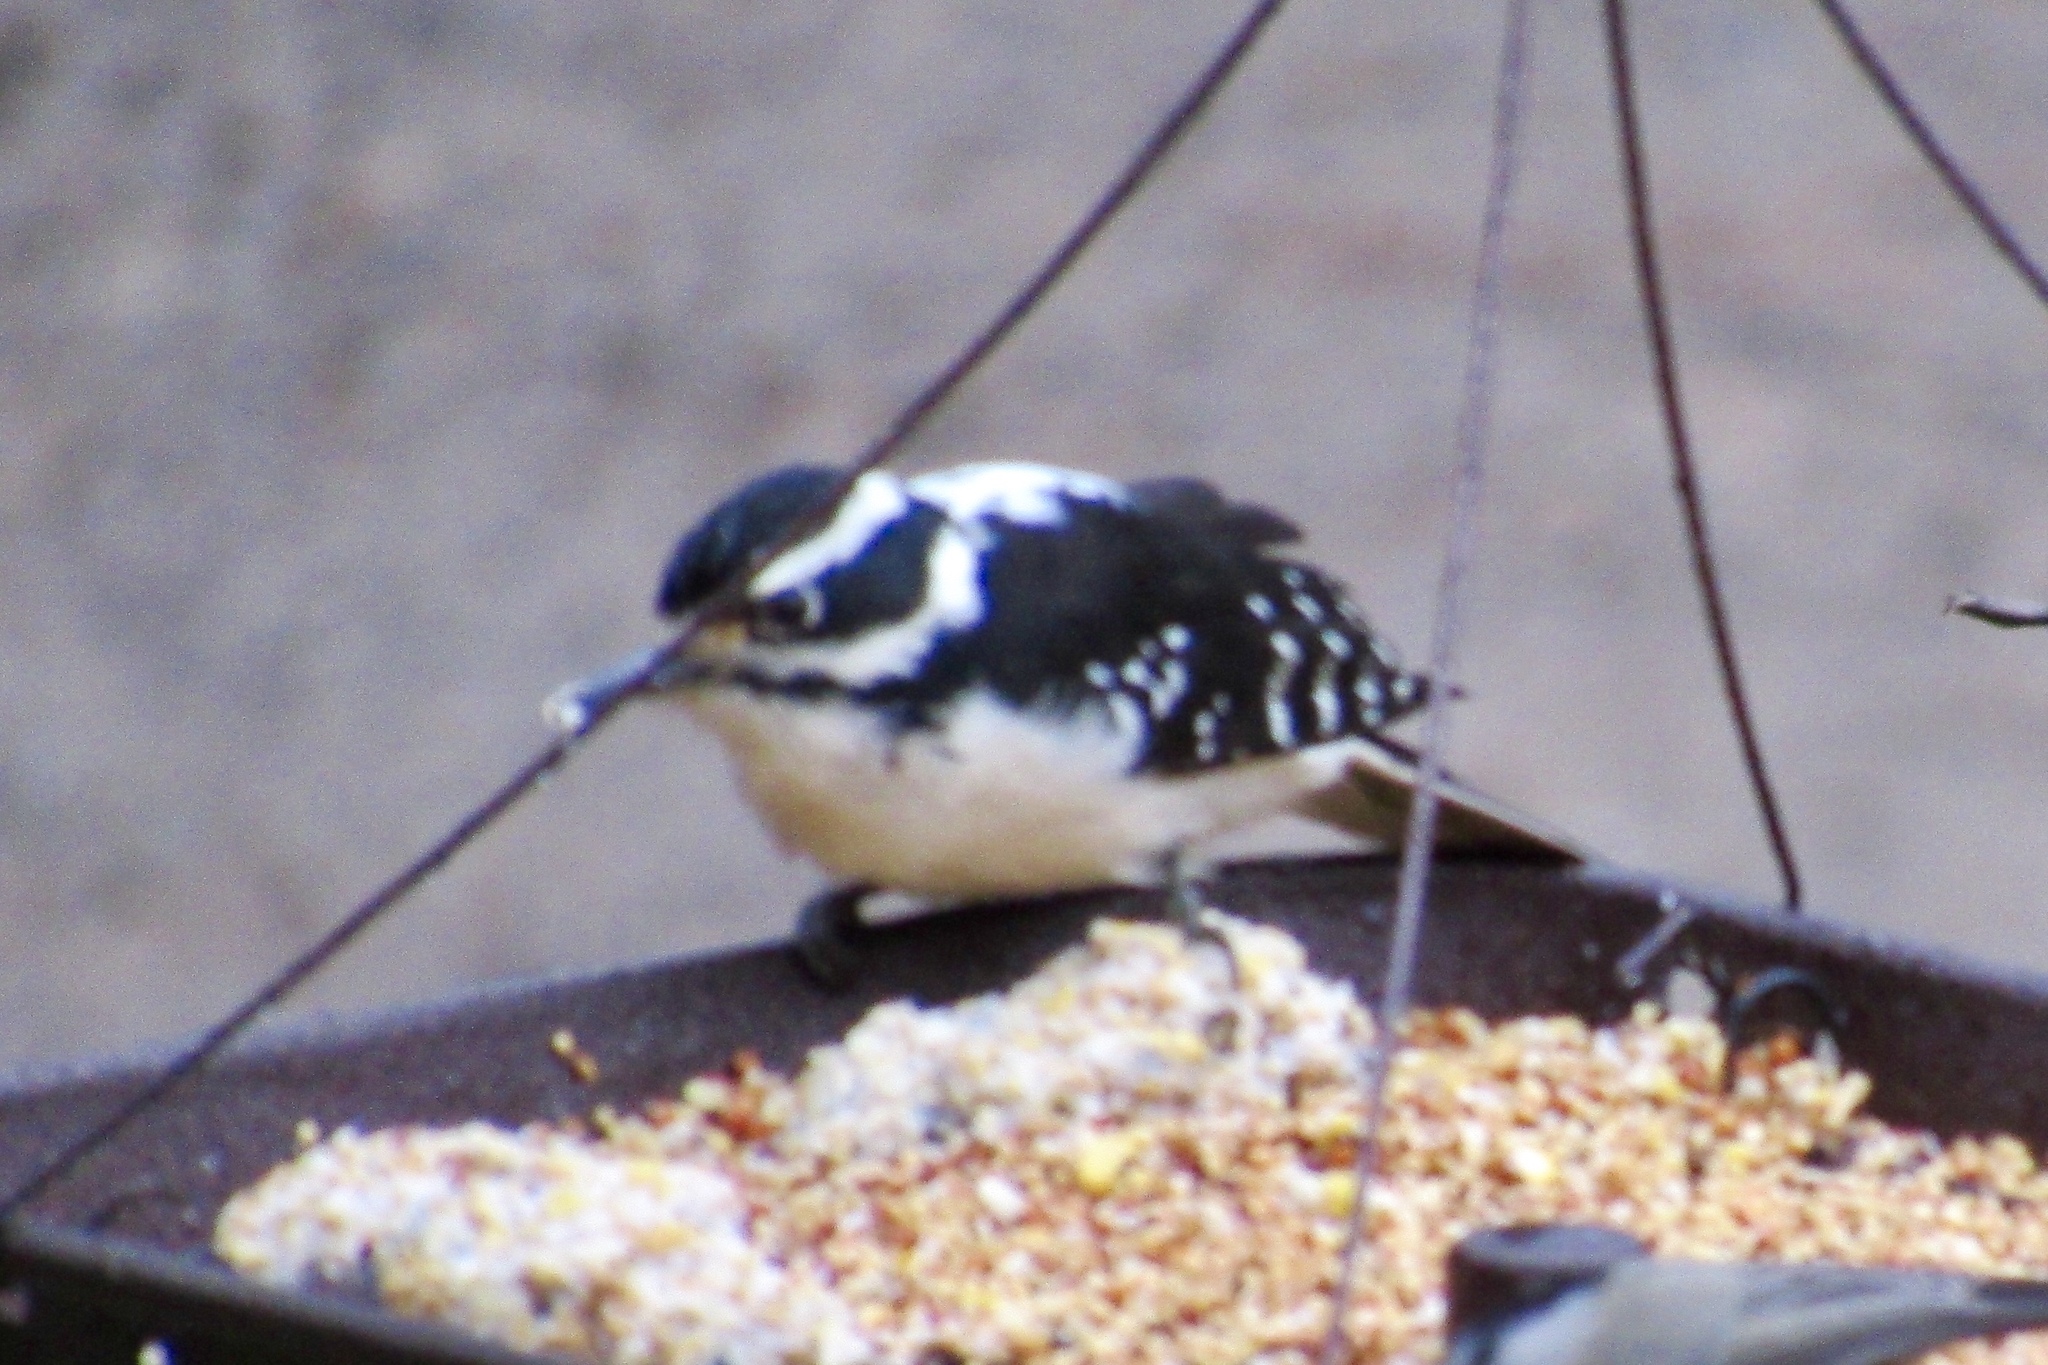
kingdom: Animalia
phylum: Chordata
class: Aves
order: Piciformes
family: Picidae
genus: Leuconotopicus
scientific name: Leuconotopicus villosus
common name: Hairy woodpecker
